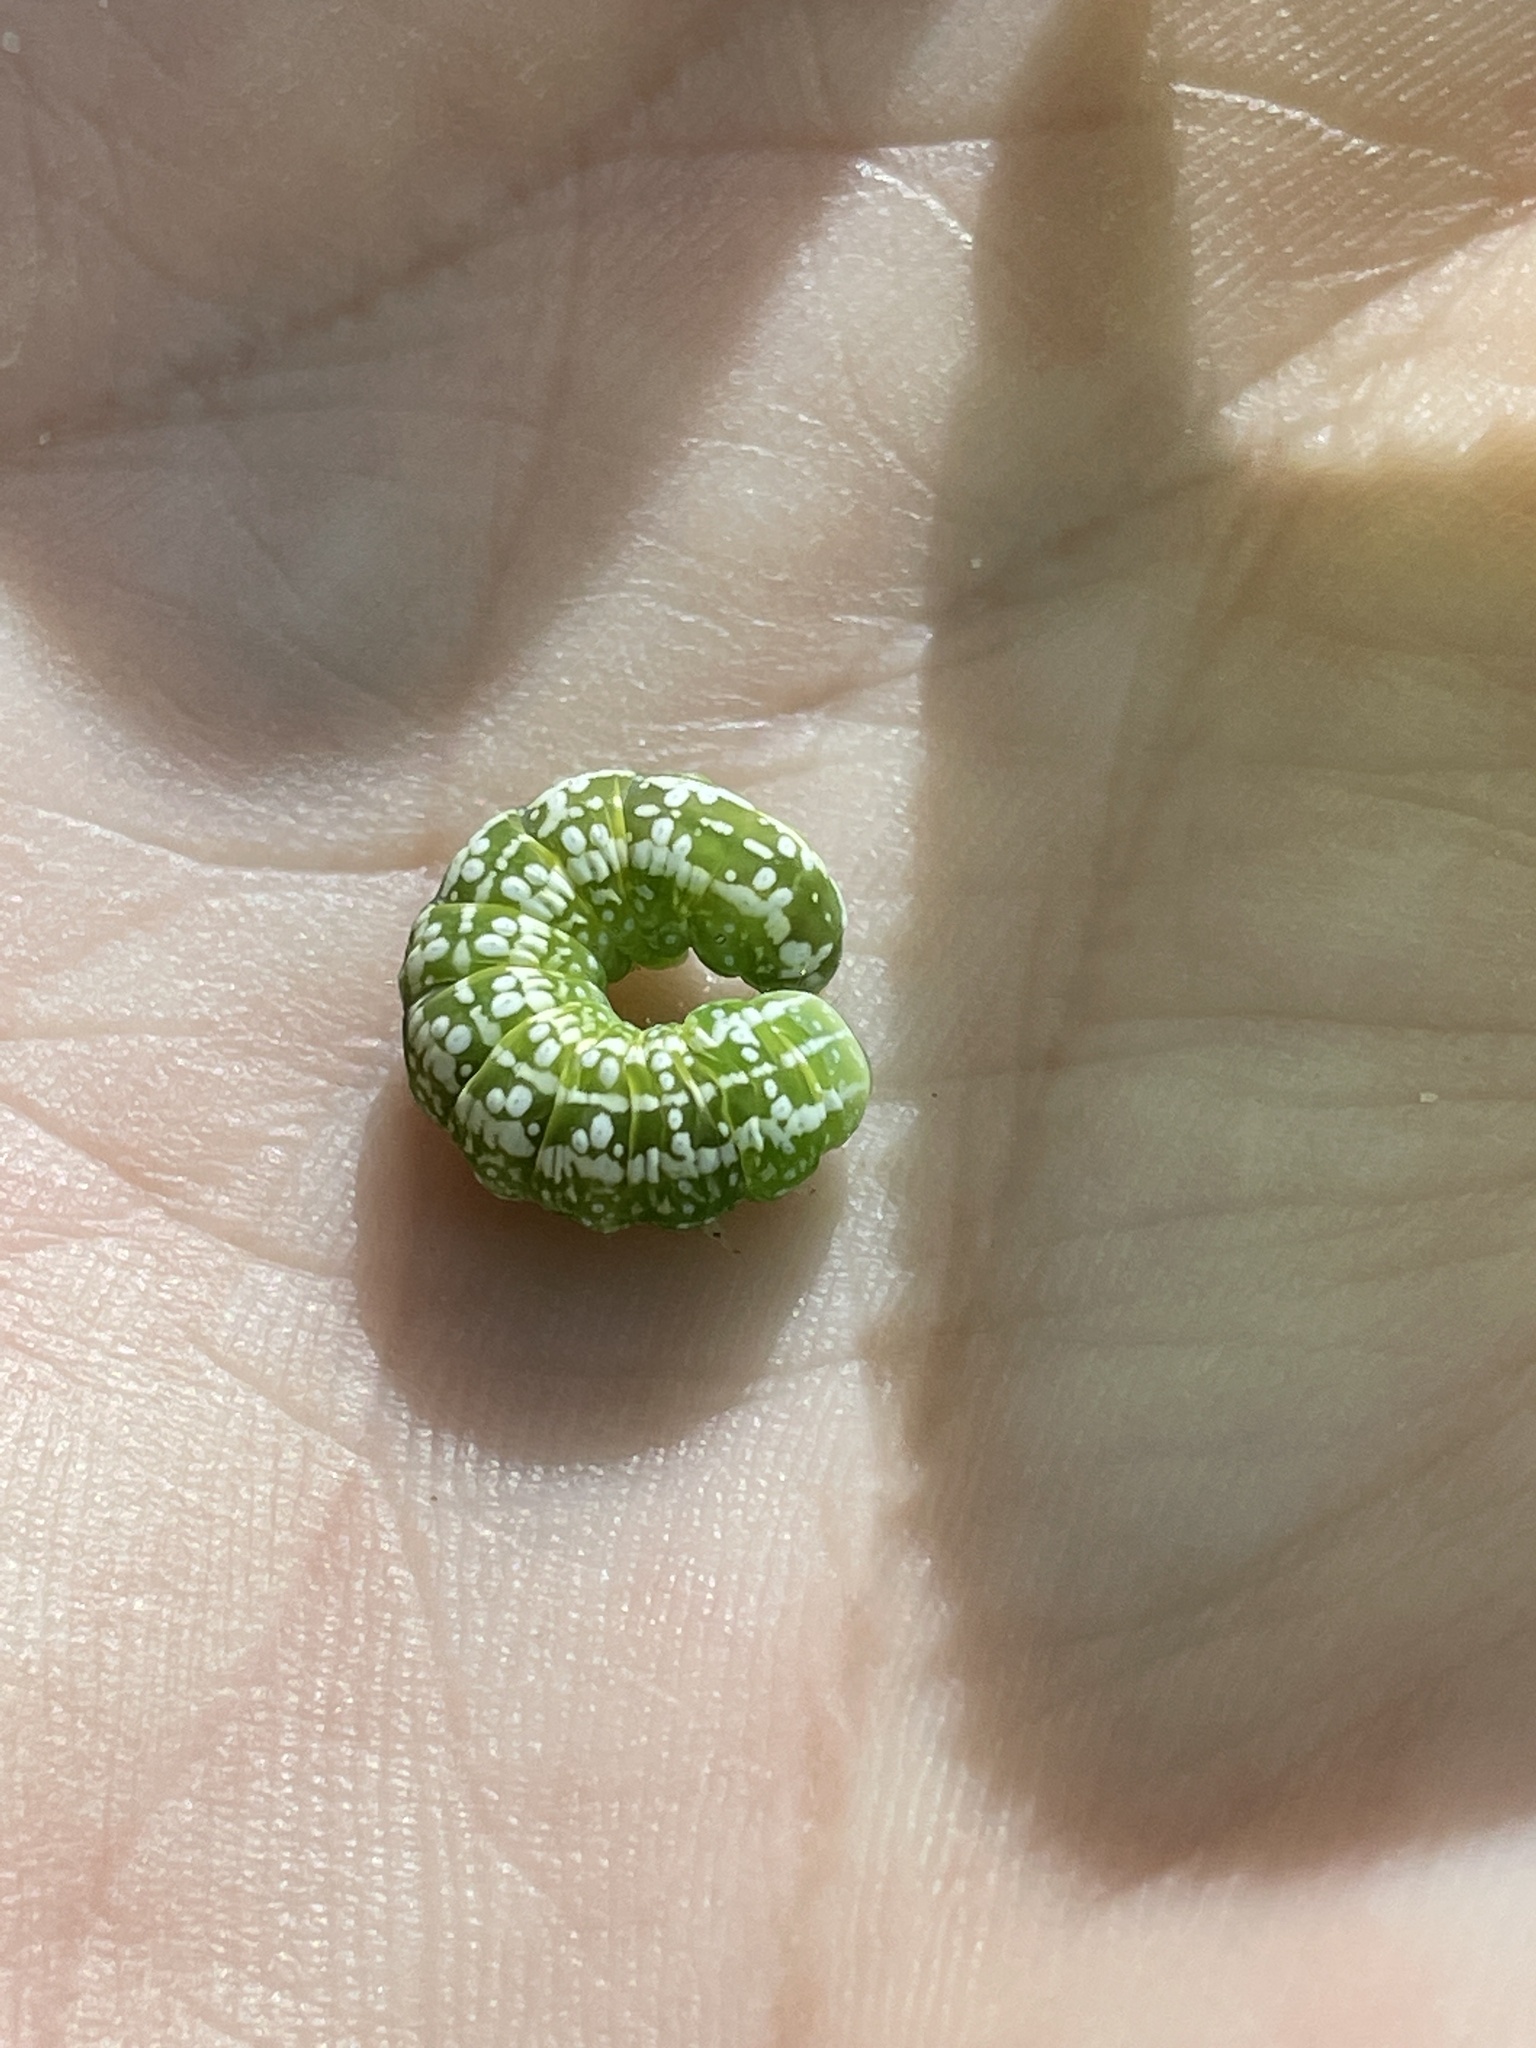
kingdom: Animalia
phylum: Arthropoda
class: Insecta
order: Lepidoptera
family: Noctuidae
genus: Pyreferra
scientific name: Pyreferra slotteni
